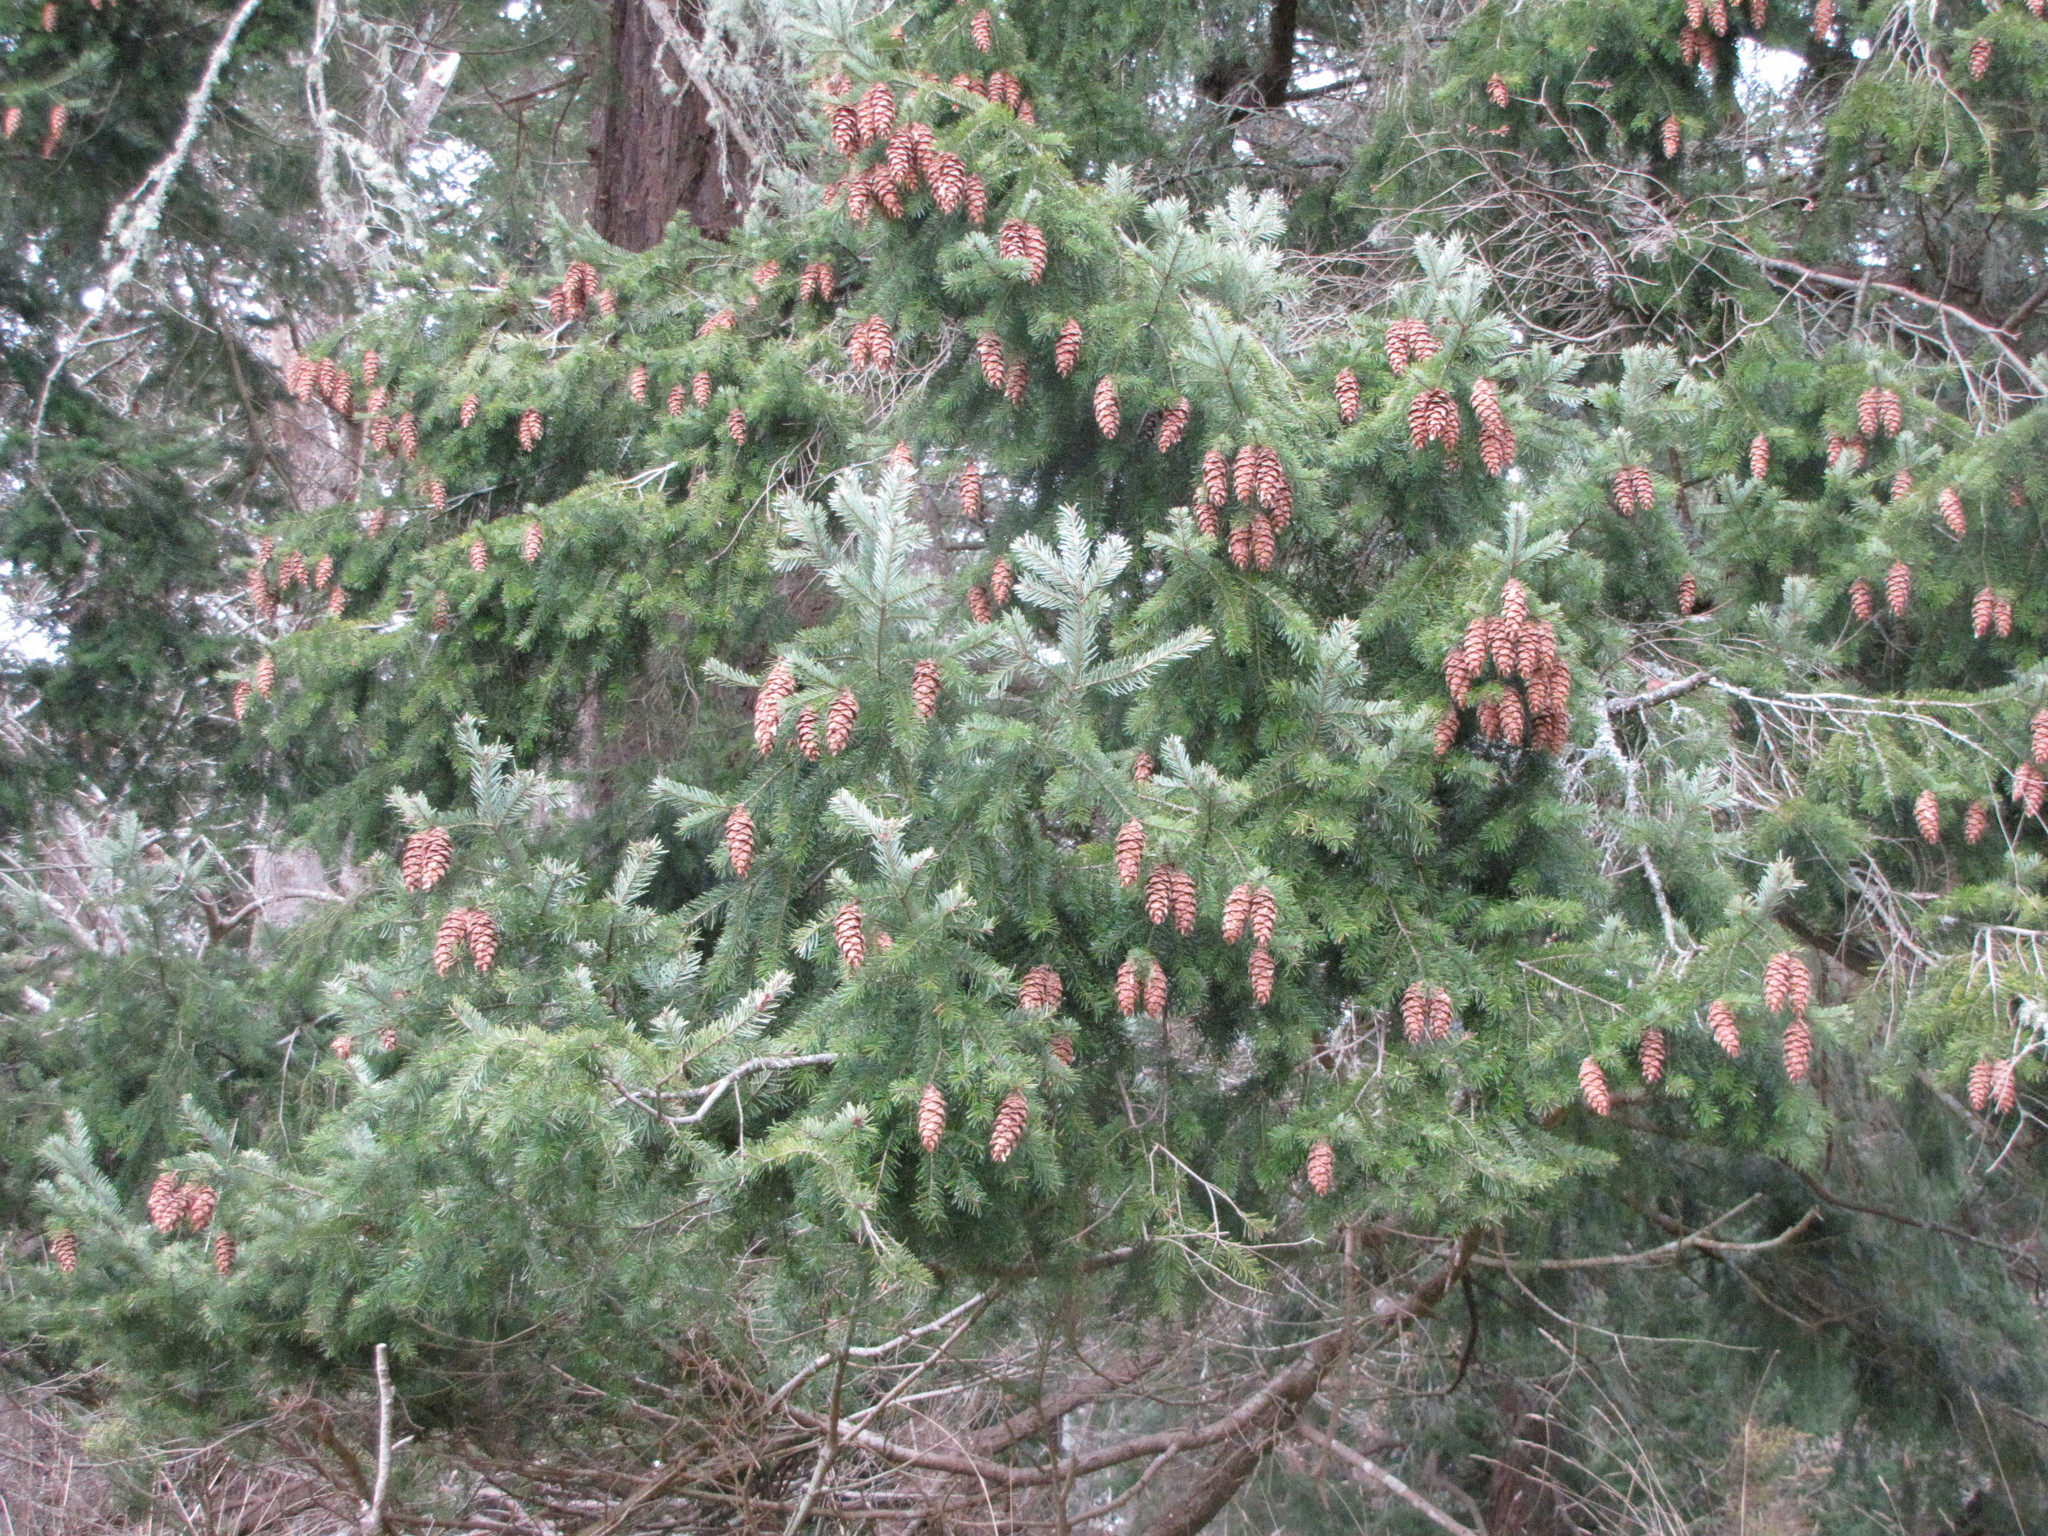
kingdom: Plantae
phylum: Tracheophyta
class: Pinopsida
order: Pinales
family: Pinaceae
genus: Pseudotsuga
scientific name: Pseudotsuga menziesii
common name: Douglas fir
